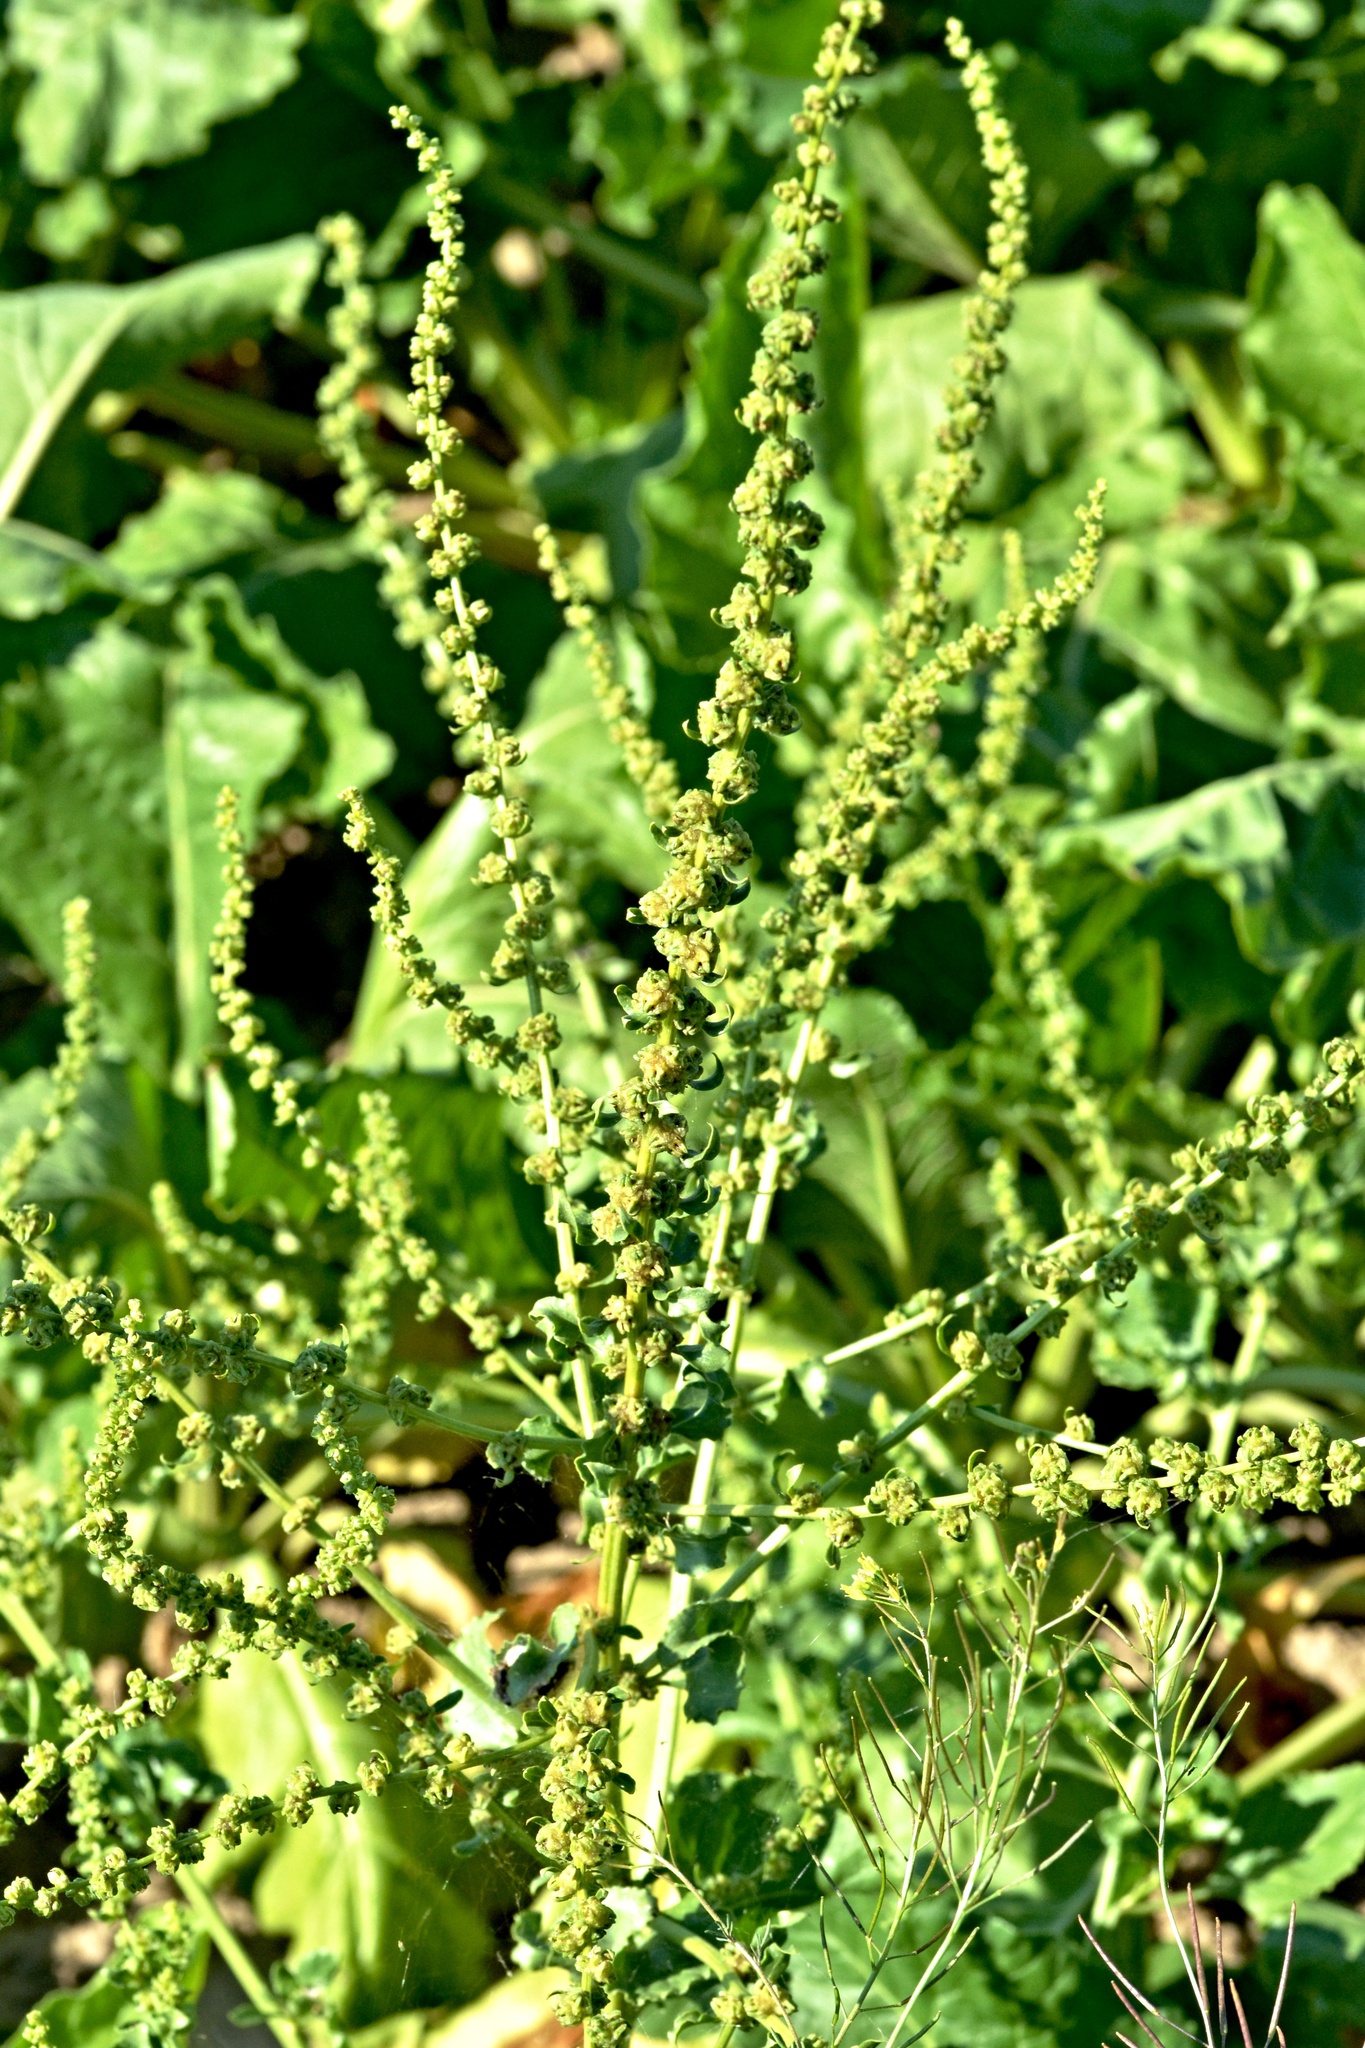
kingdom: Plantae
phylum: Tracheophyta
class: Magnoliopsida
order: Caryophyllales
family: Amaranthaceae
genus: Beta
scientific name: Beta vulgaris
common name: Beet
